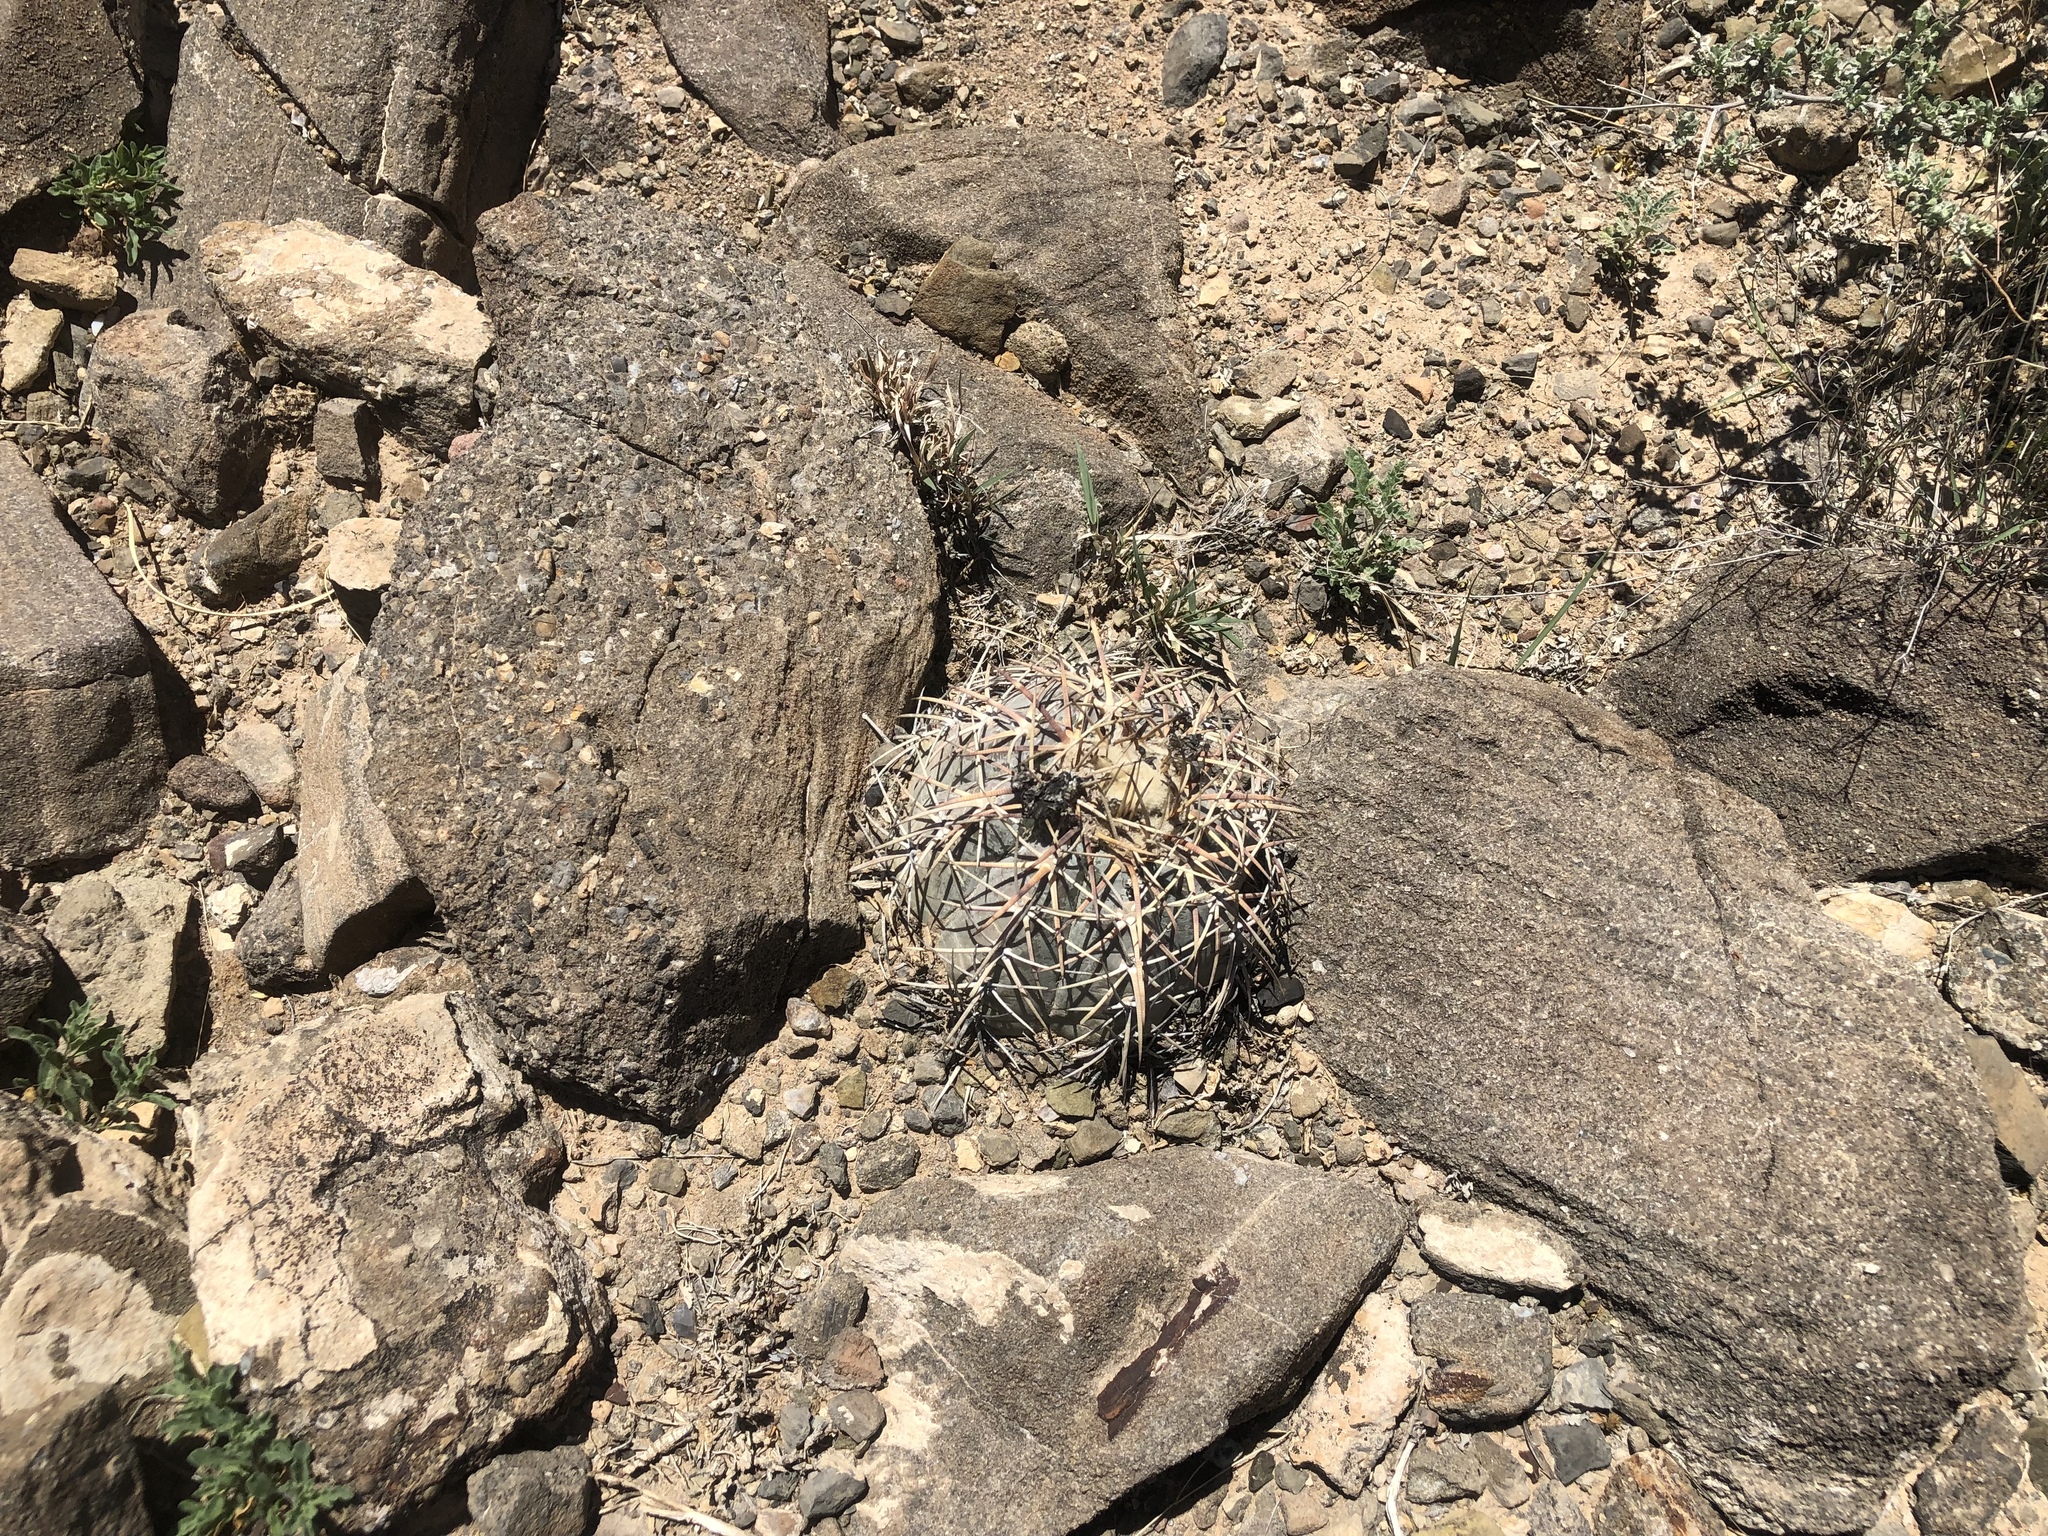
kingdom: Plantae
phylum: Tracheophyta
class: Magnoliopsida
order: Caryophyllales
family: Cactaceae
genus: Echinocactus
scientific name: Echinocactus horizonthalonius
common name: Devilshead
